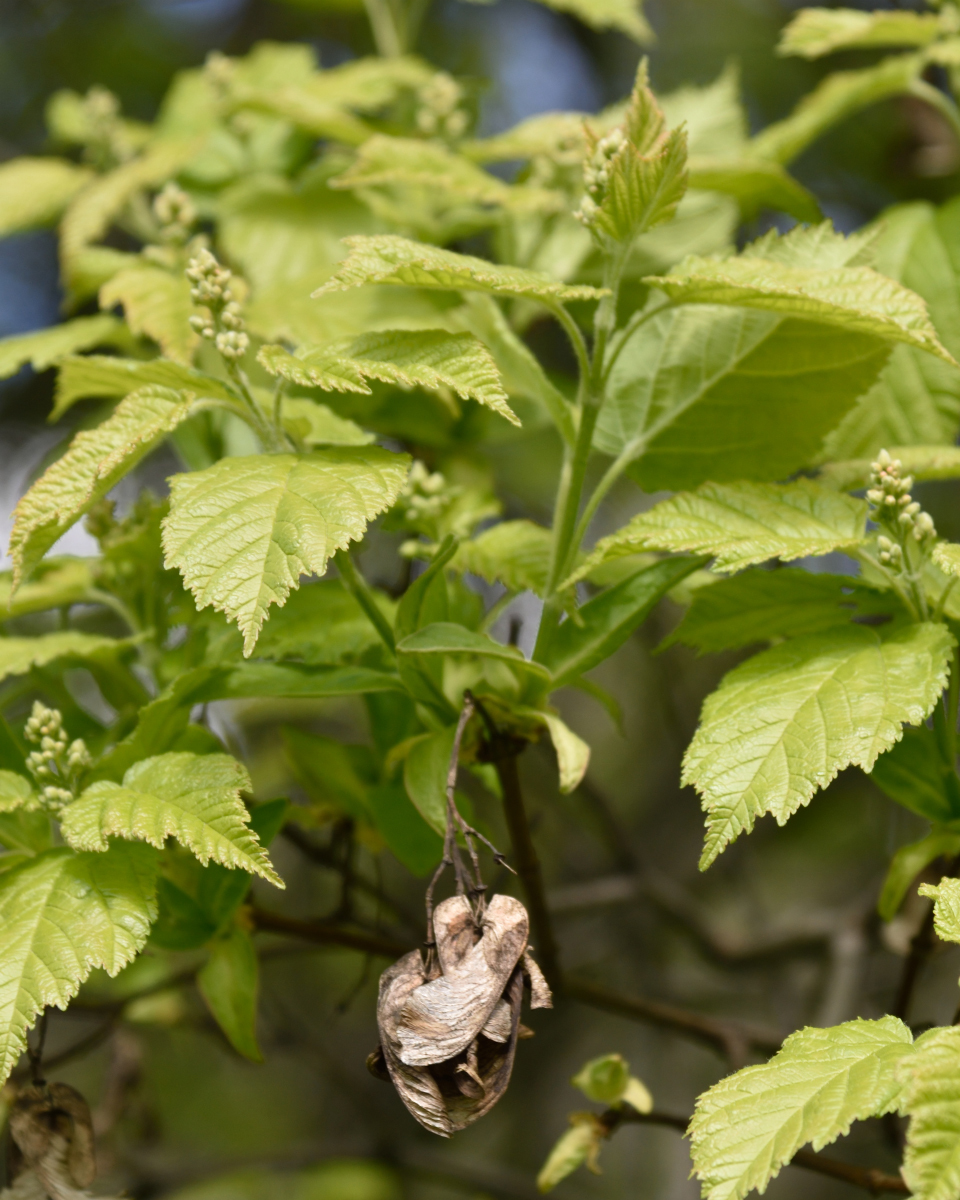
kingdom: Plantae
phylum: Tracheophyta
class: Magnoliopsida
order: Sapindales
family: Sapindaceae
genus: Acer
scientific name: Acer tataricum
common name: Tartar maple
